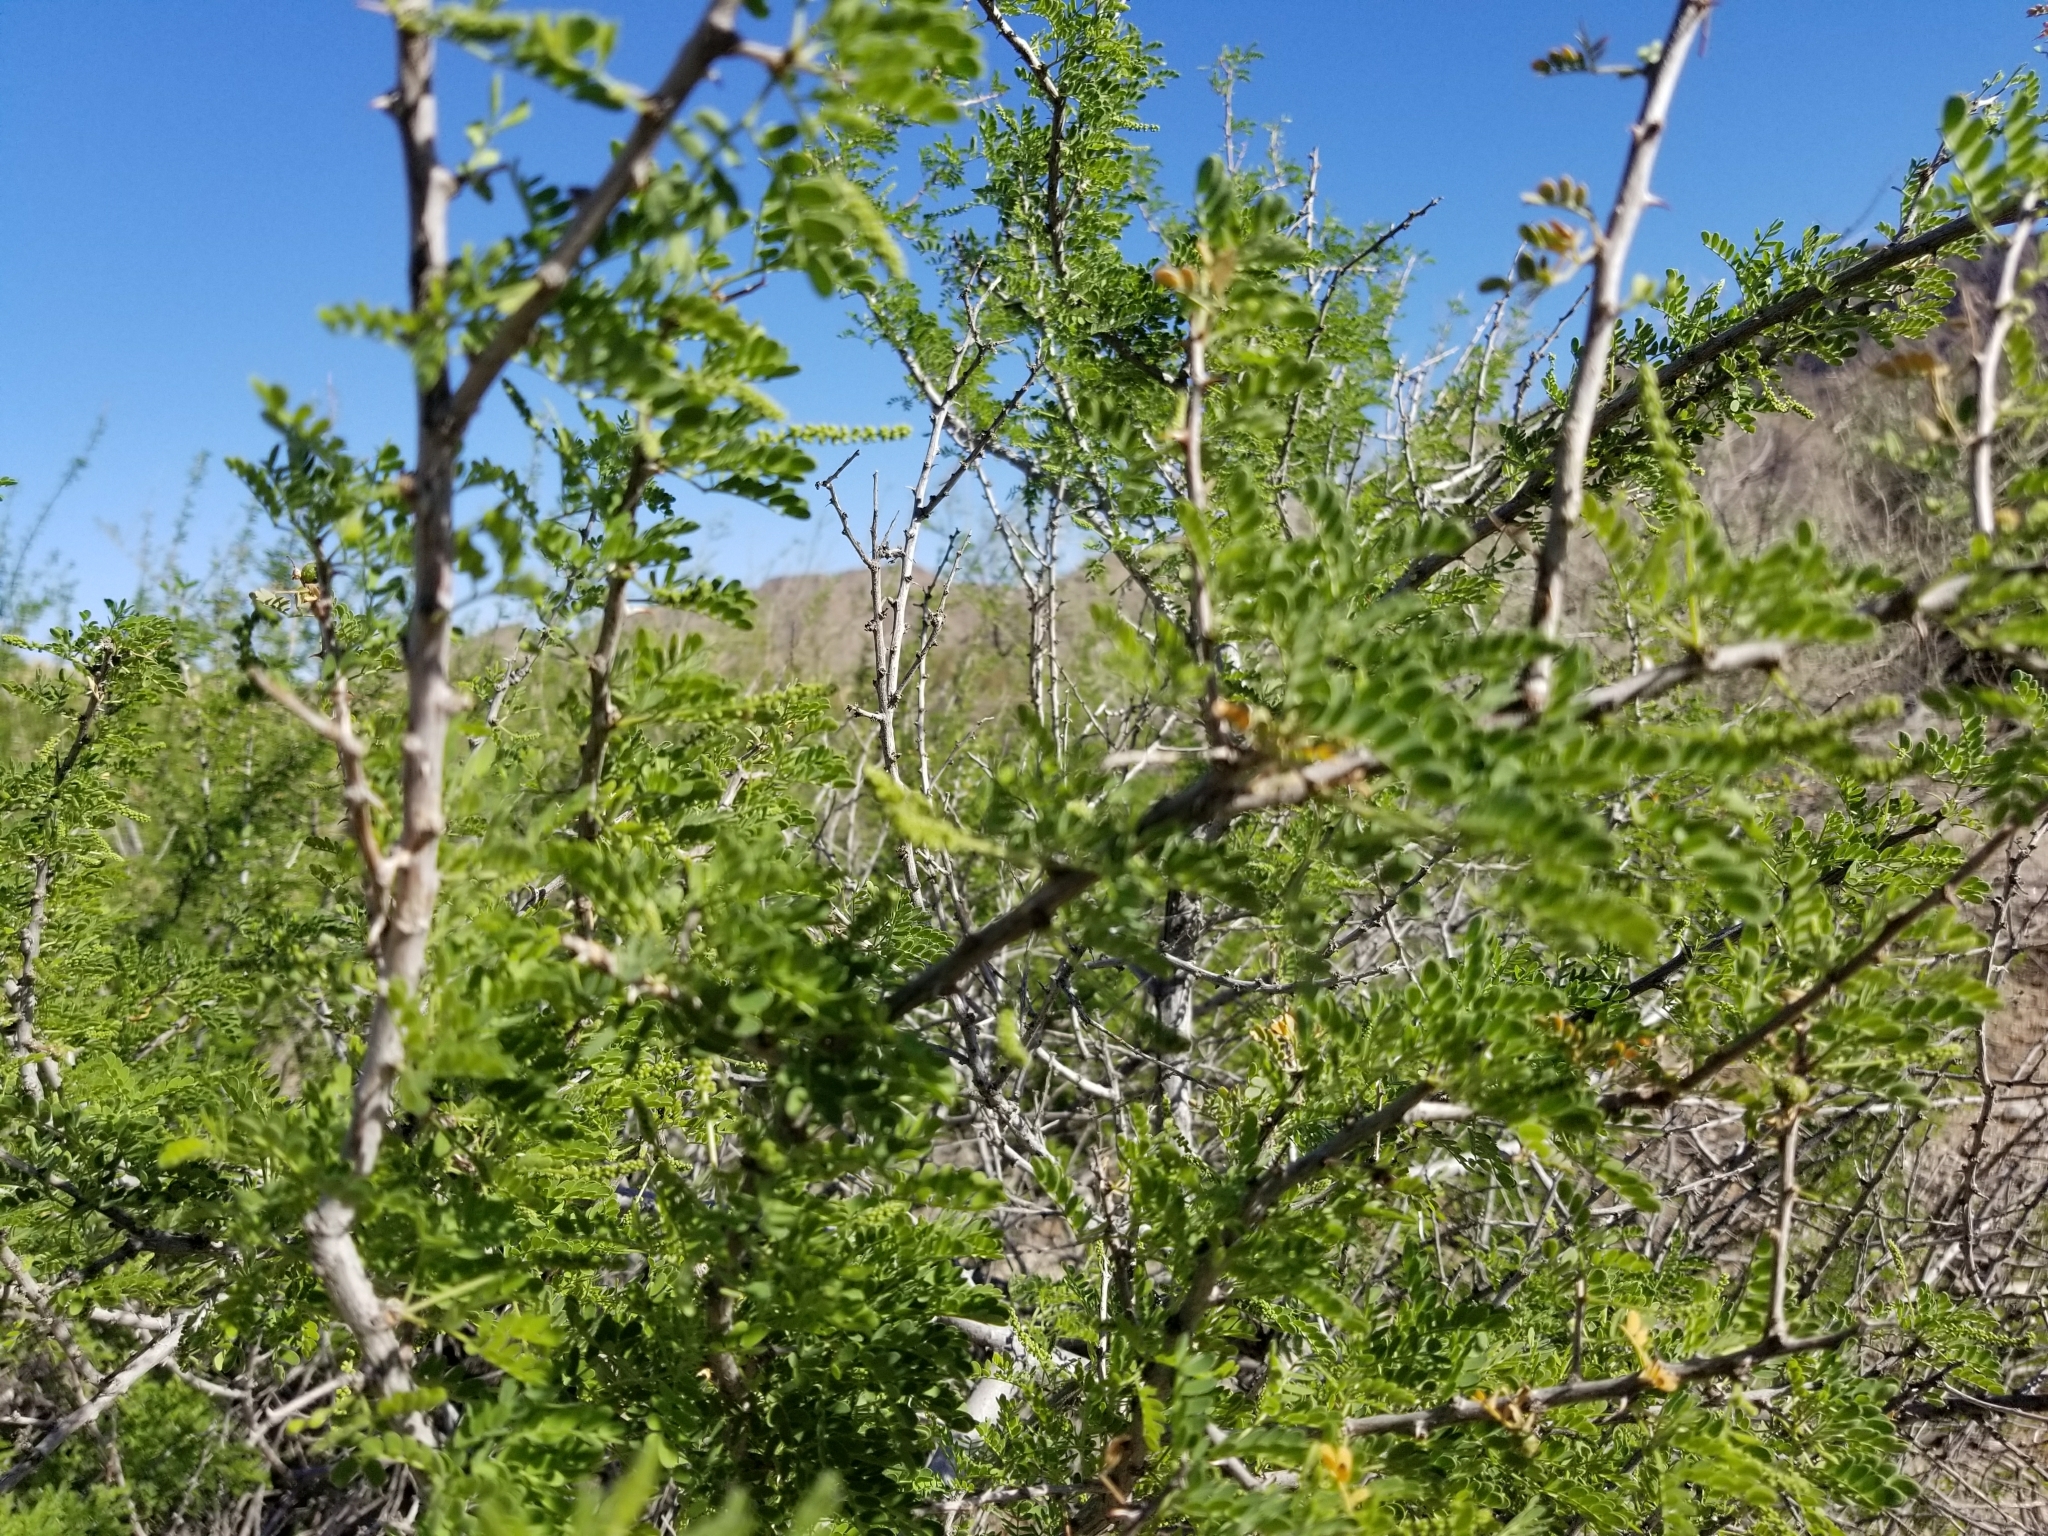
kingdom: Plantae
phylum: Tracheophyta
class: Magnoliopsida
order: Fabales
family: Fabaceae
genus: Senegalia
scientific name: Senegalia greggii
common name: Texas-mimosa
